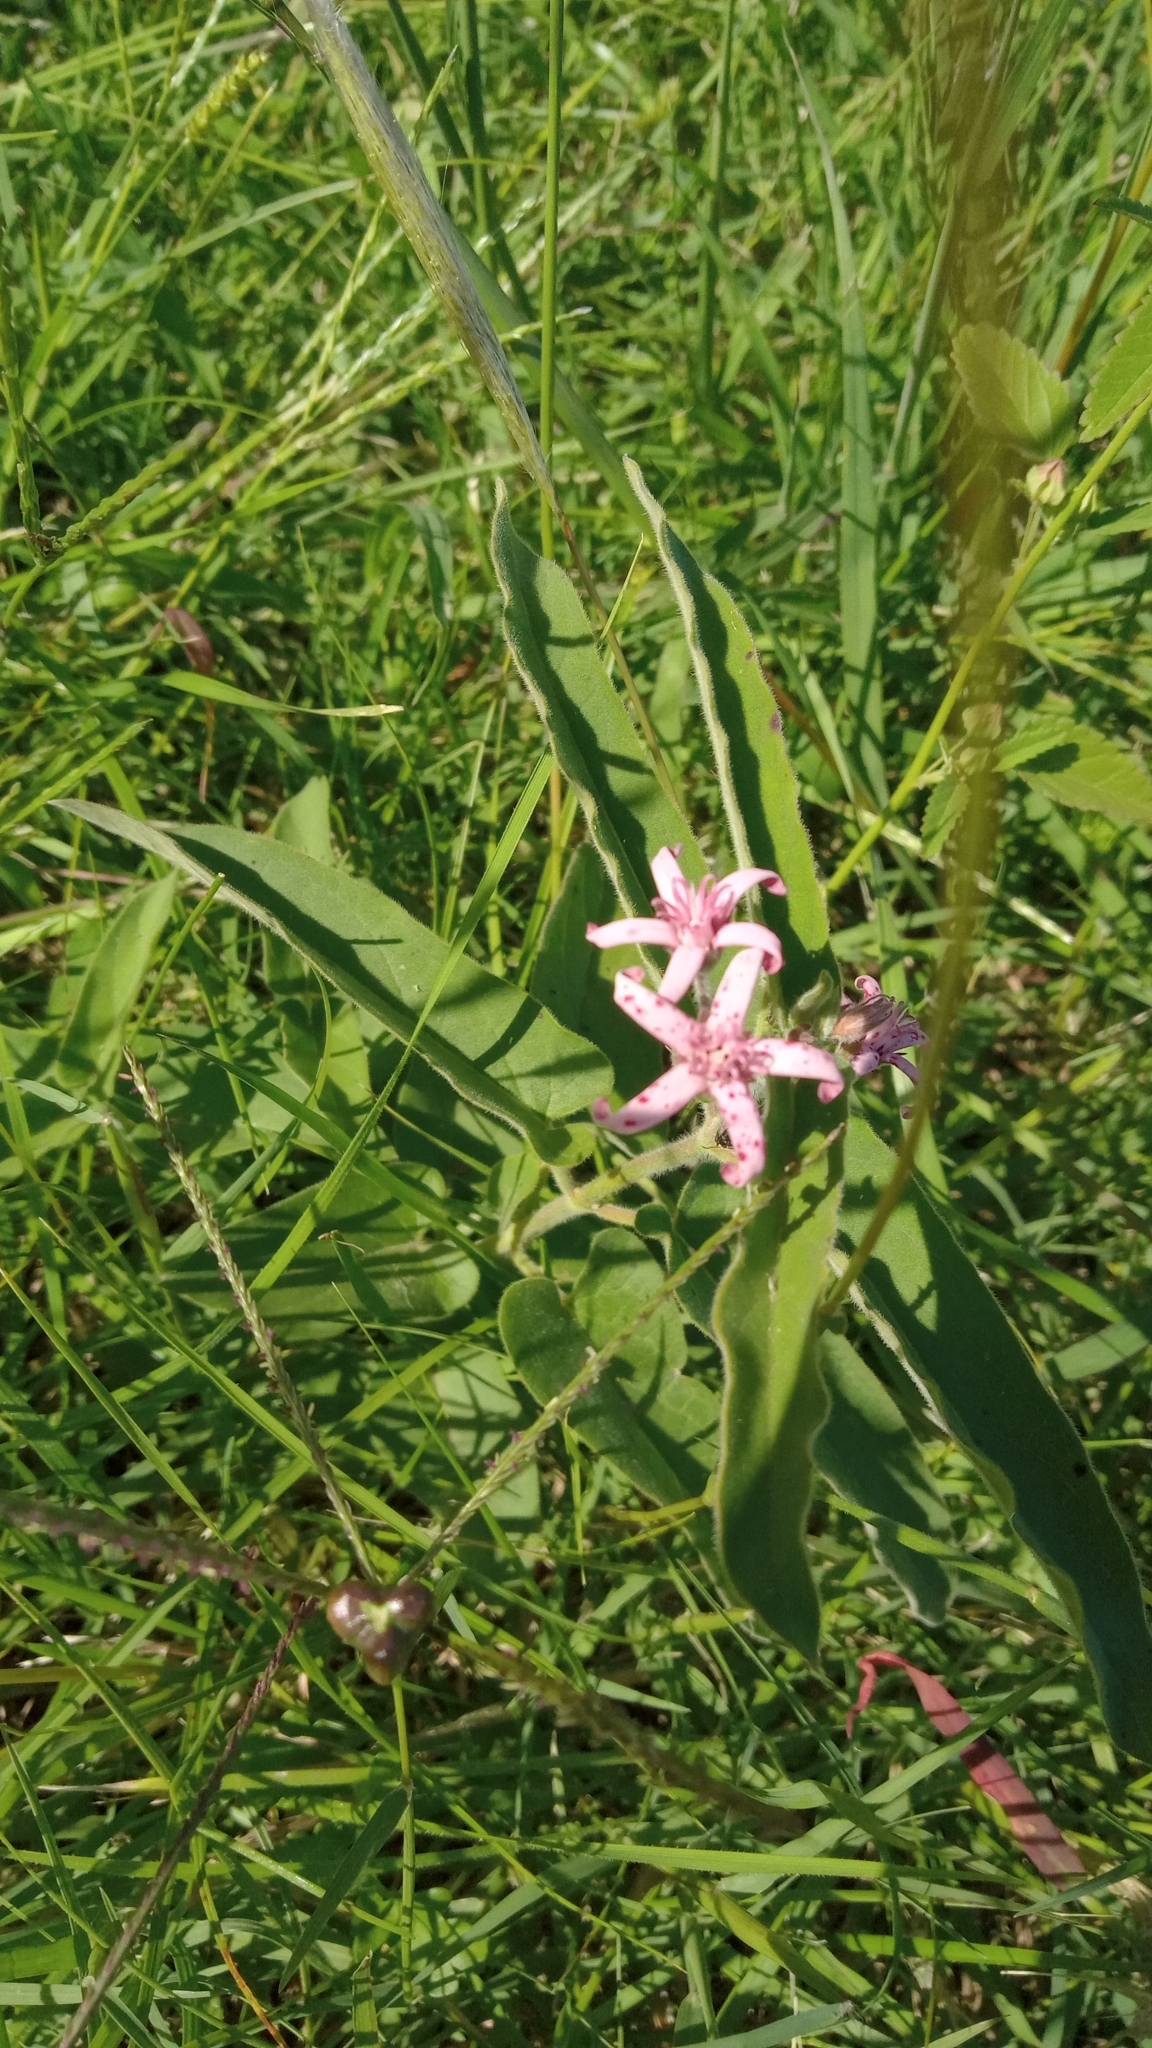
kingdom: Plantae
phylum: Tracheophyta
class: Magnoliopsida
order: Gentianales
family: Apocynaceae
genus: Oxypetalum
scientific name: Oxypetalum solanoides
